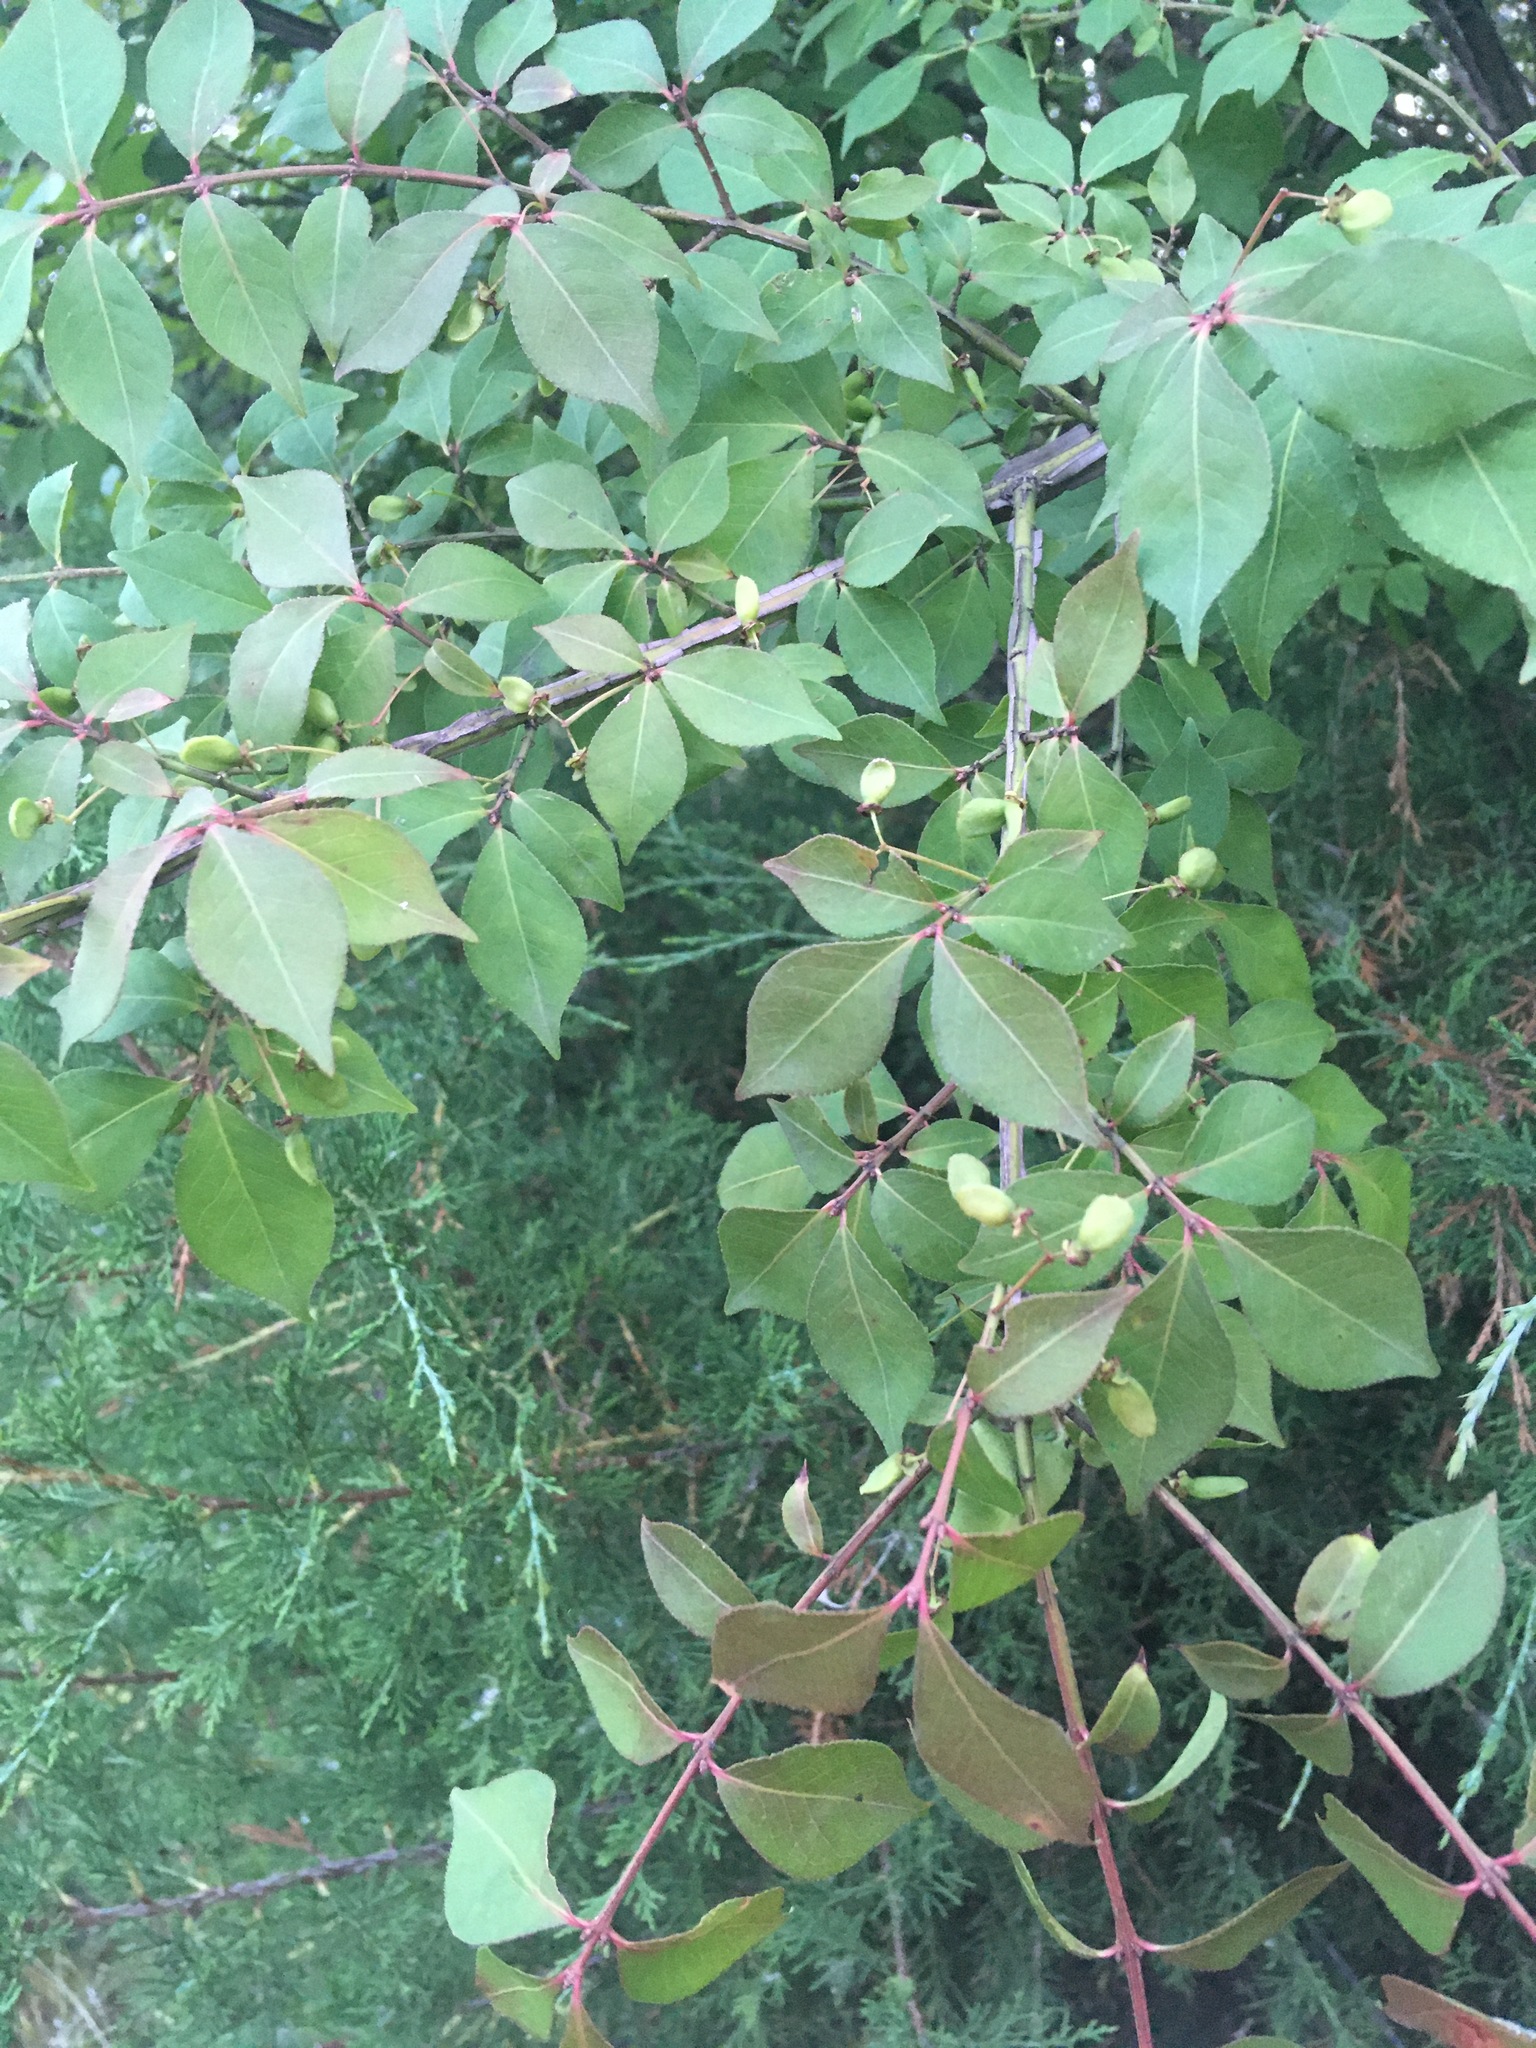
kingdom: Plantae
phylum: Tracheophyta
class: Magnoliopsida
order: Celastrales
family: Celastraceae
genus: Euonymus
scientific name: Euonymus alatus
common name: Winged euonymus
